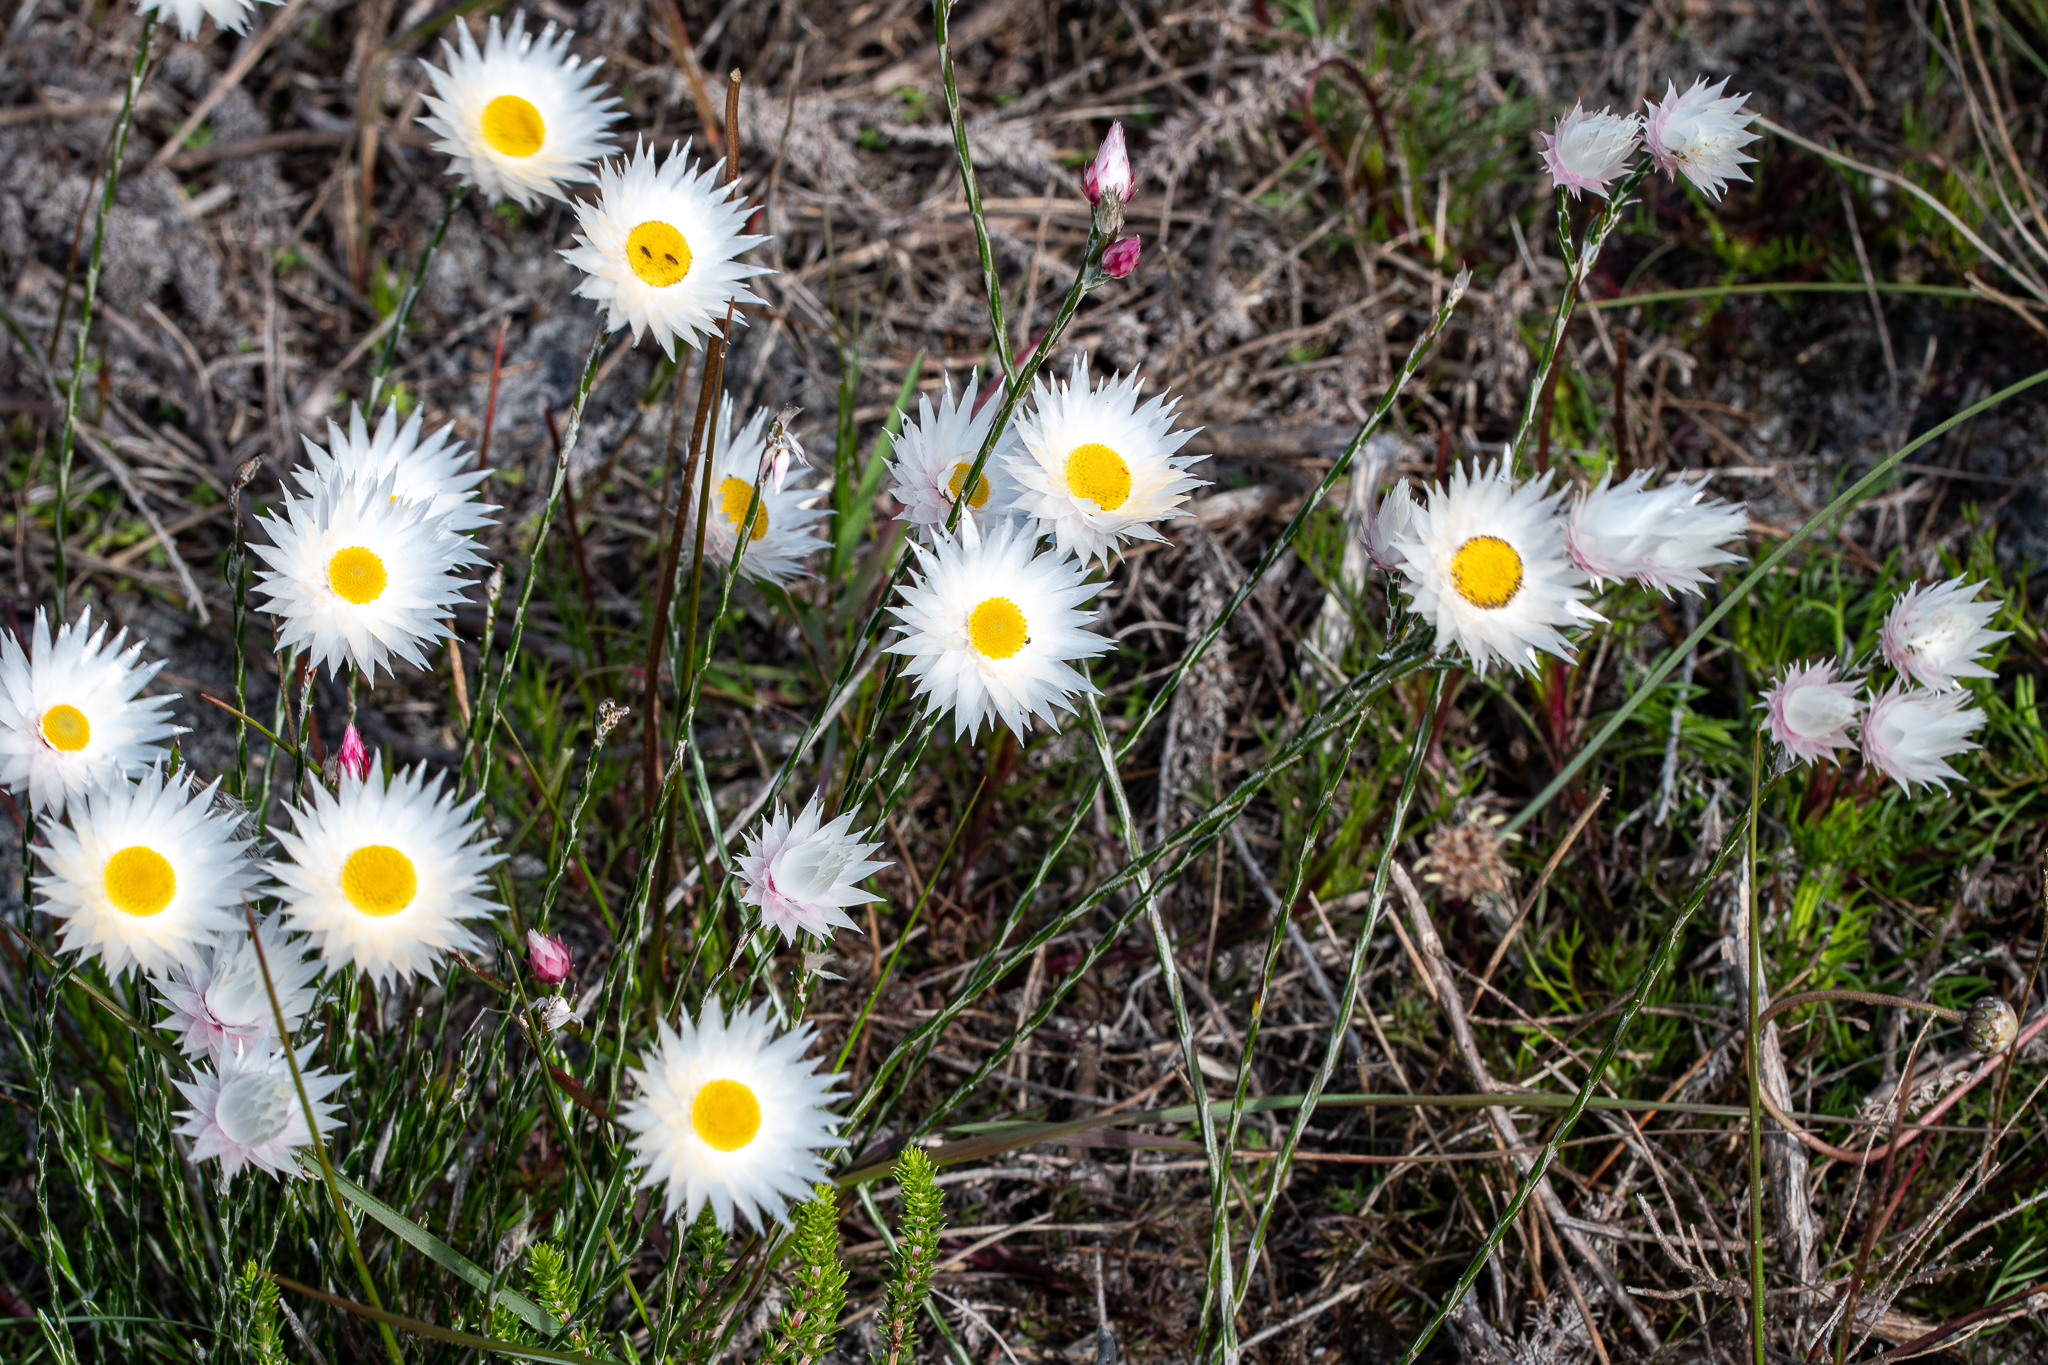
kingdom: Plantae
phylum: Tracheophyta
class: Magnoliopsida
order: Asterales
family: Asteraceae
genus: Edmondia
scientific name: Edmondia sesamoides
